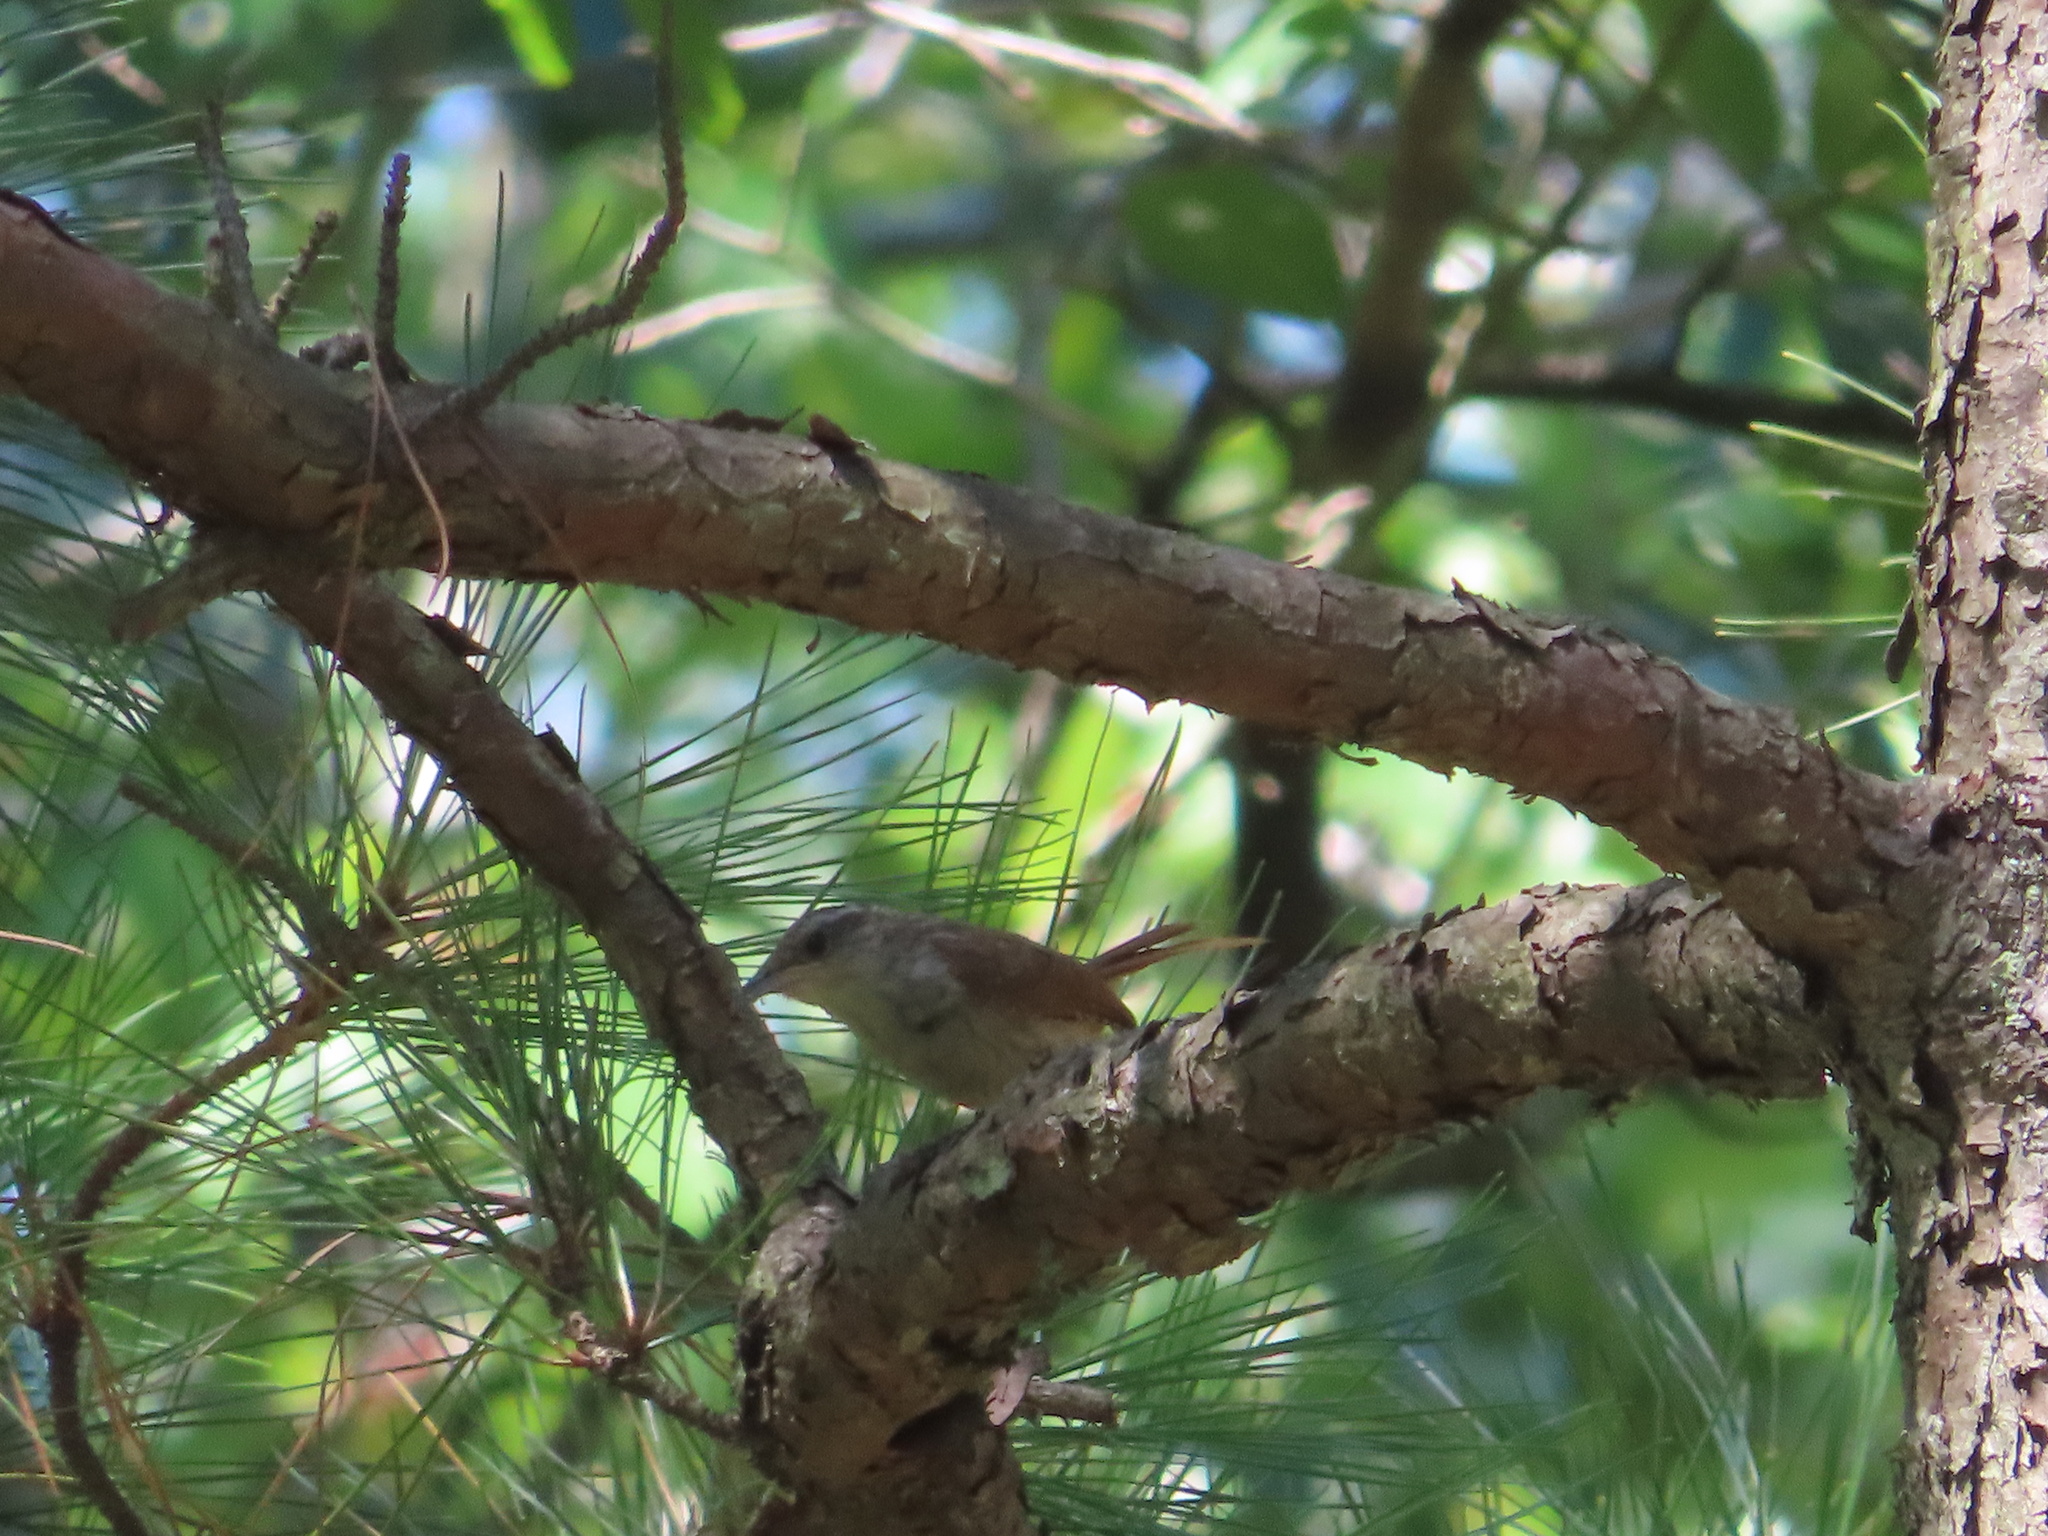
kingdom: Animalia
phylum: Chordata
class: Aves
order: Passeriformes
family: Troglodytidae
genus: Thryothorus
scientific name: Thryothorus ludovicianus
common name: Carolina wren
